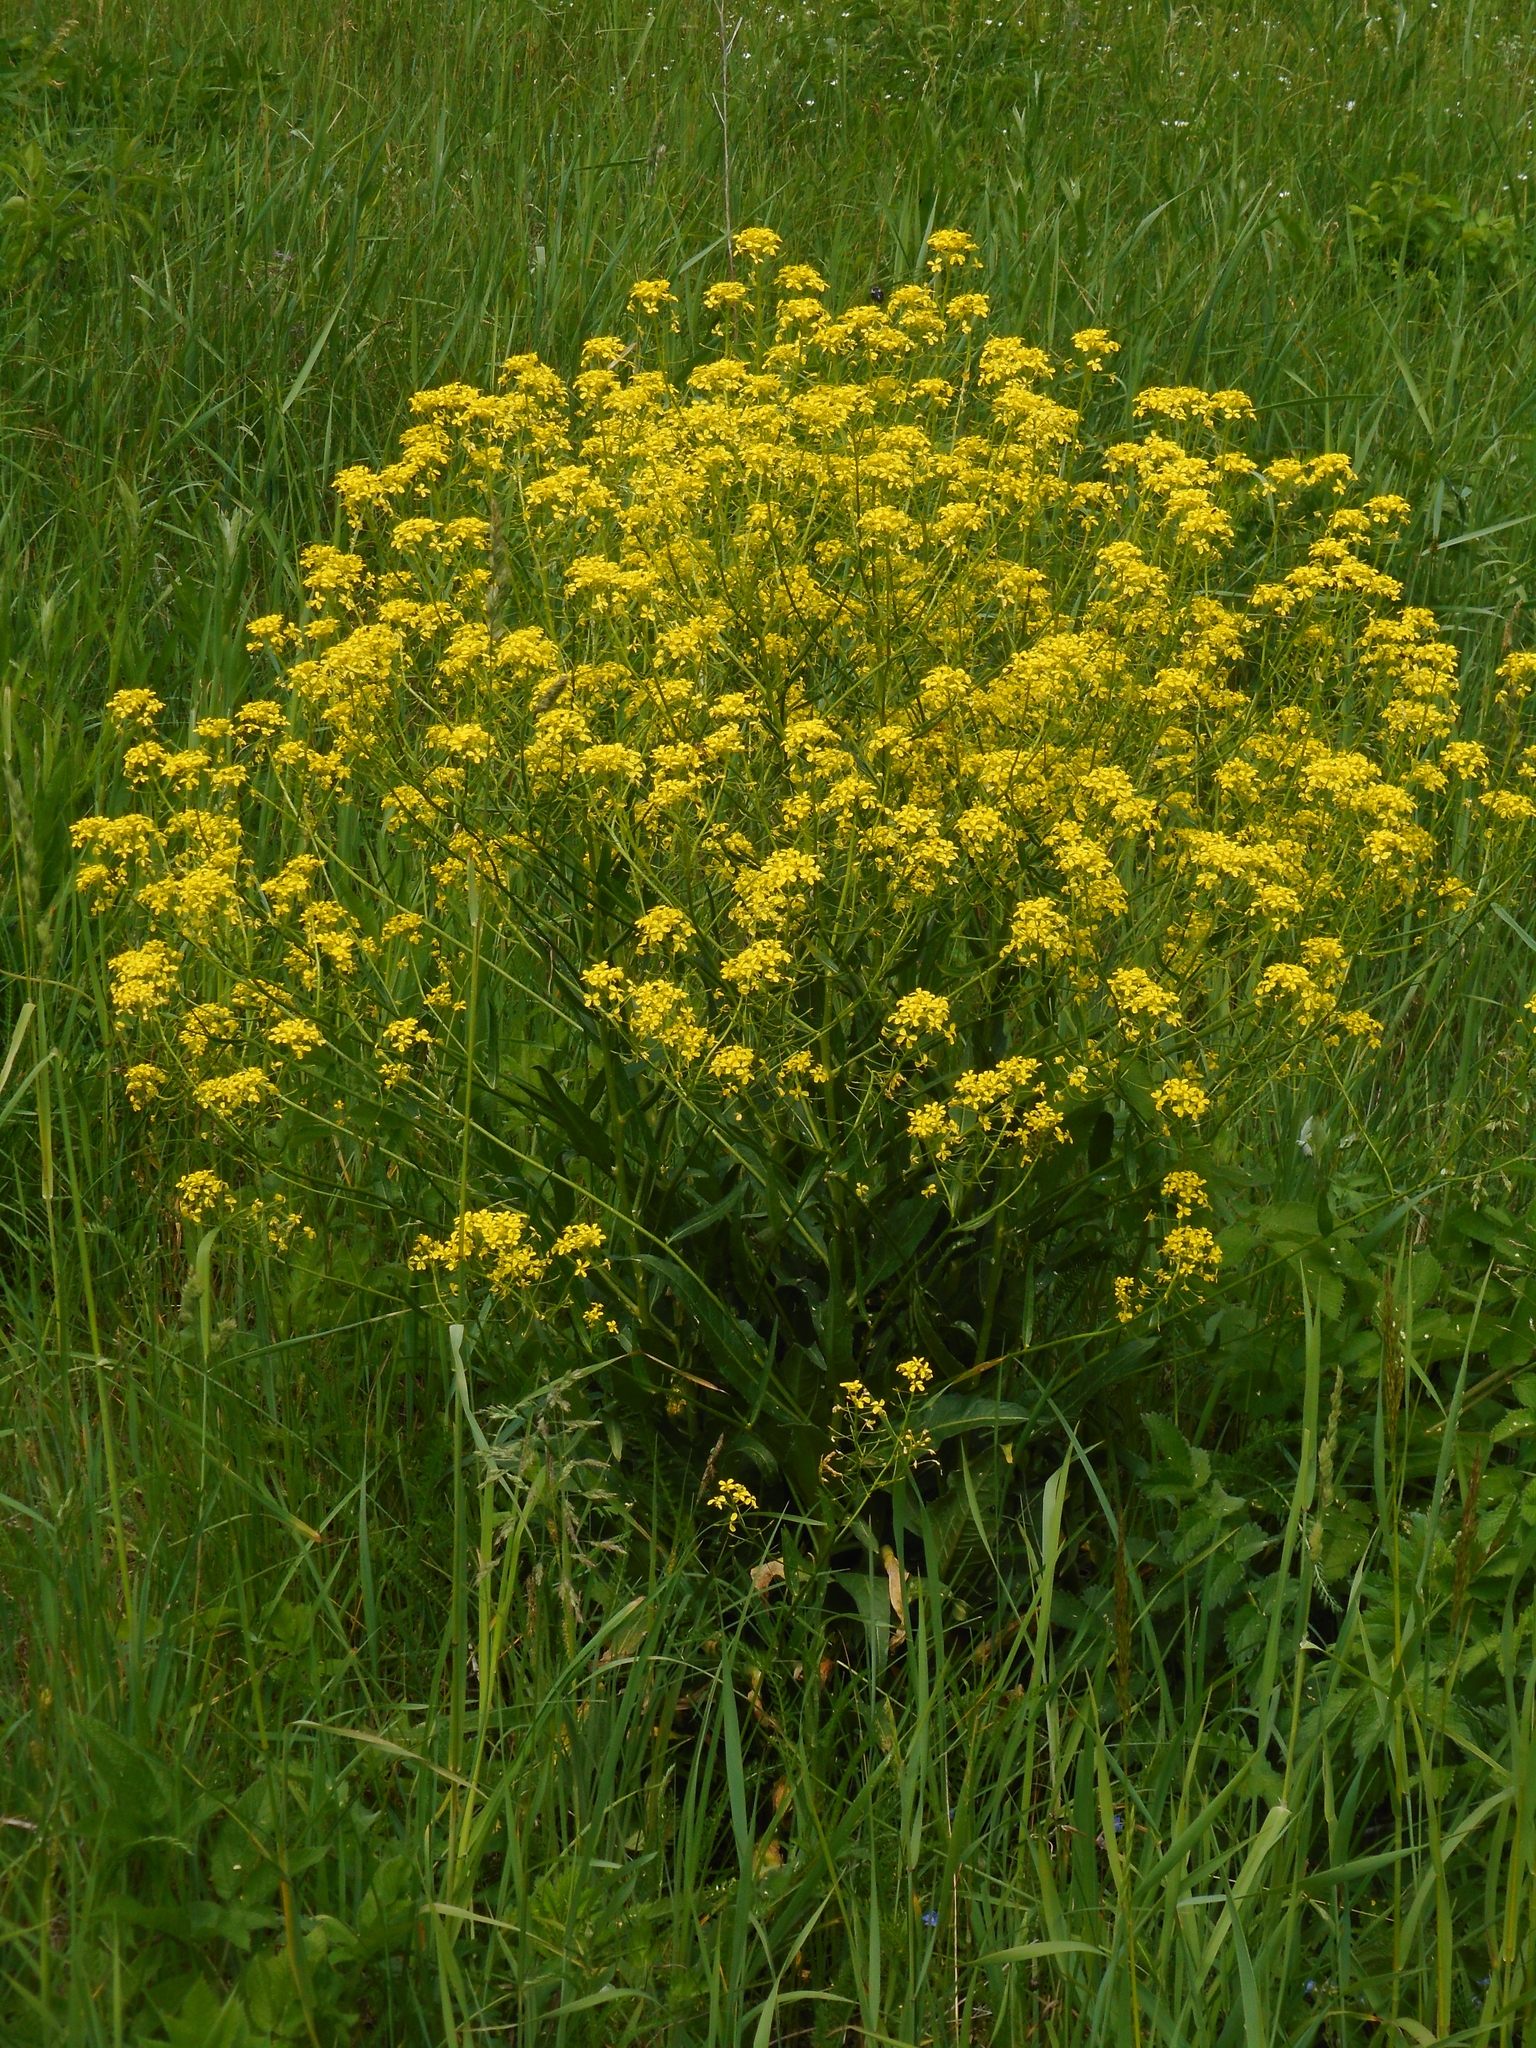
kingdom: Plantae
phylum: Tracheophyta
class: Magnoliopsida
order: Brassicales
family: Brassicaceae
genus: Bunias
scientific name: Bunias orientalis
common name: Warty-cabbage
